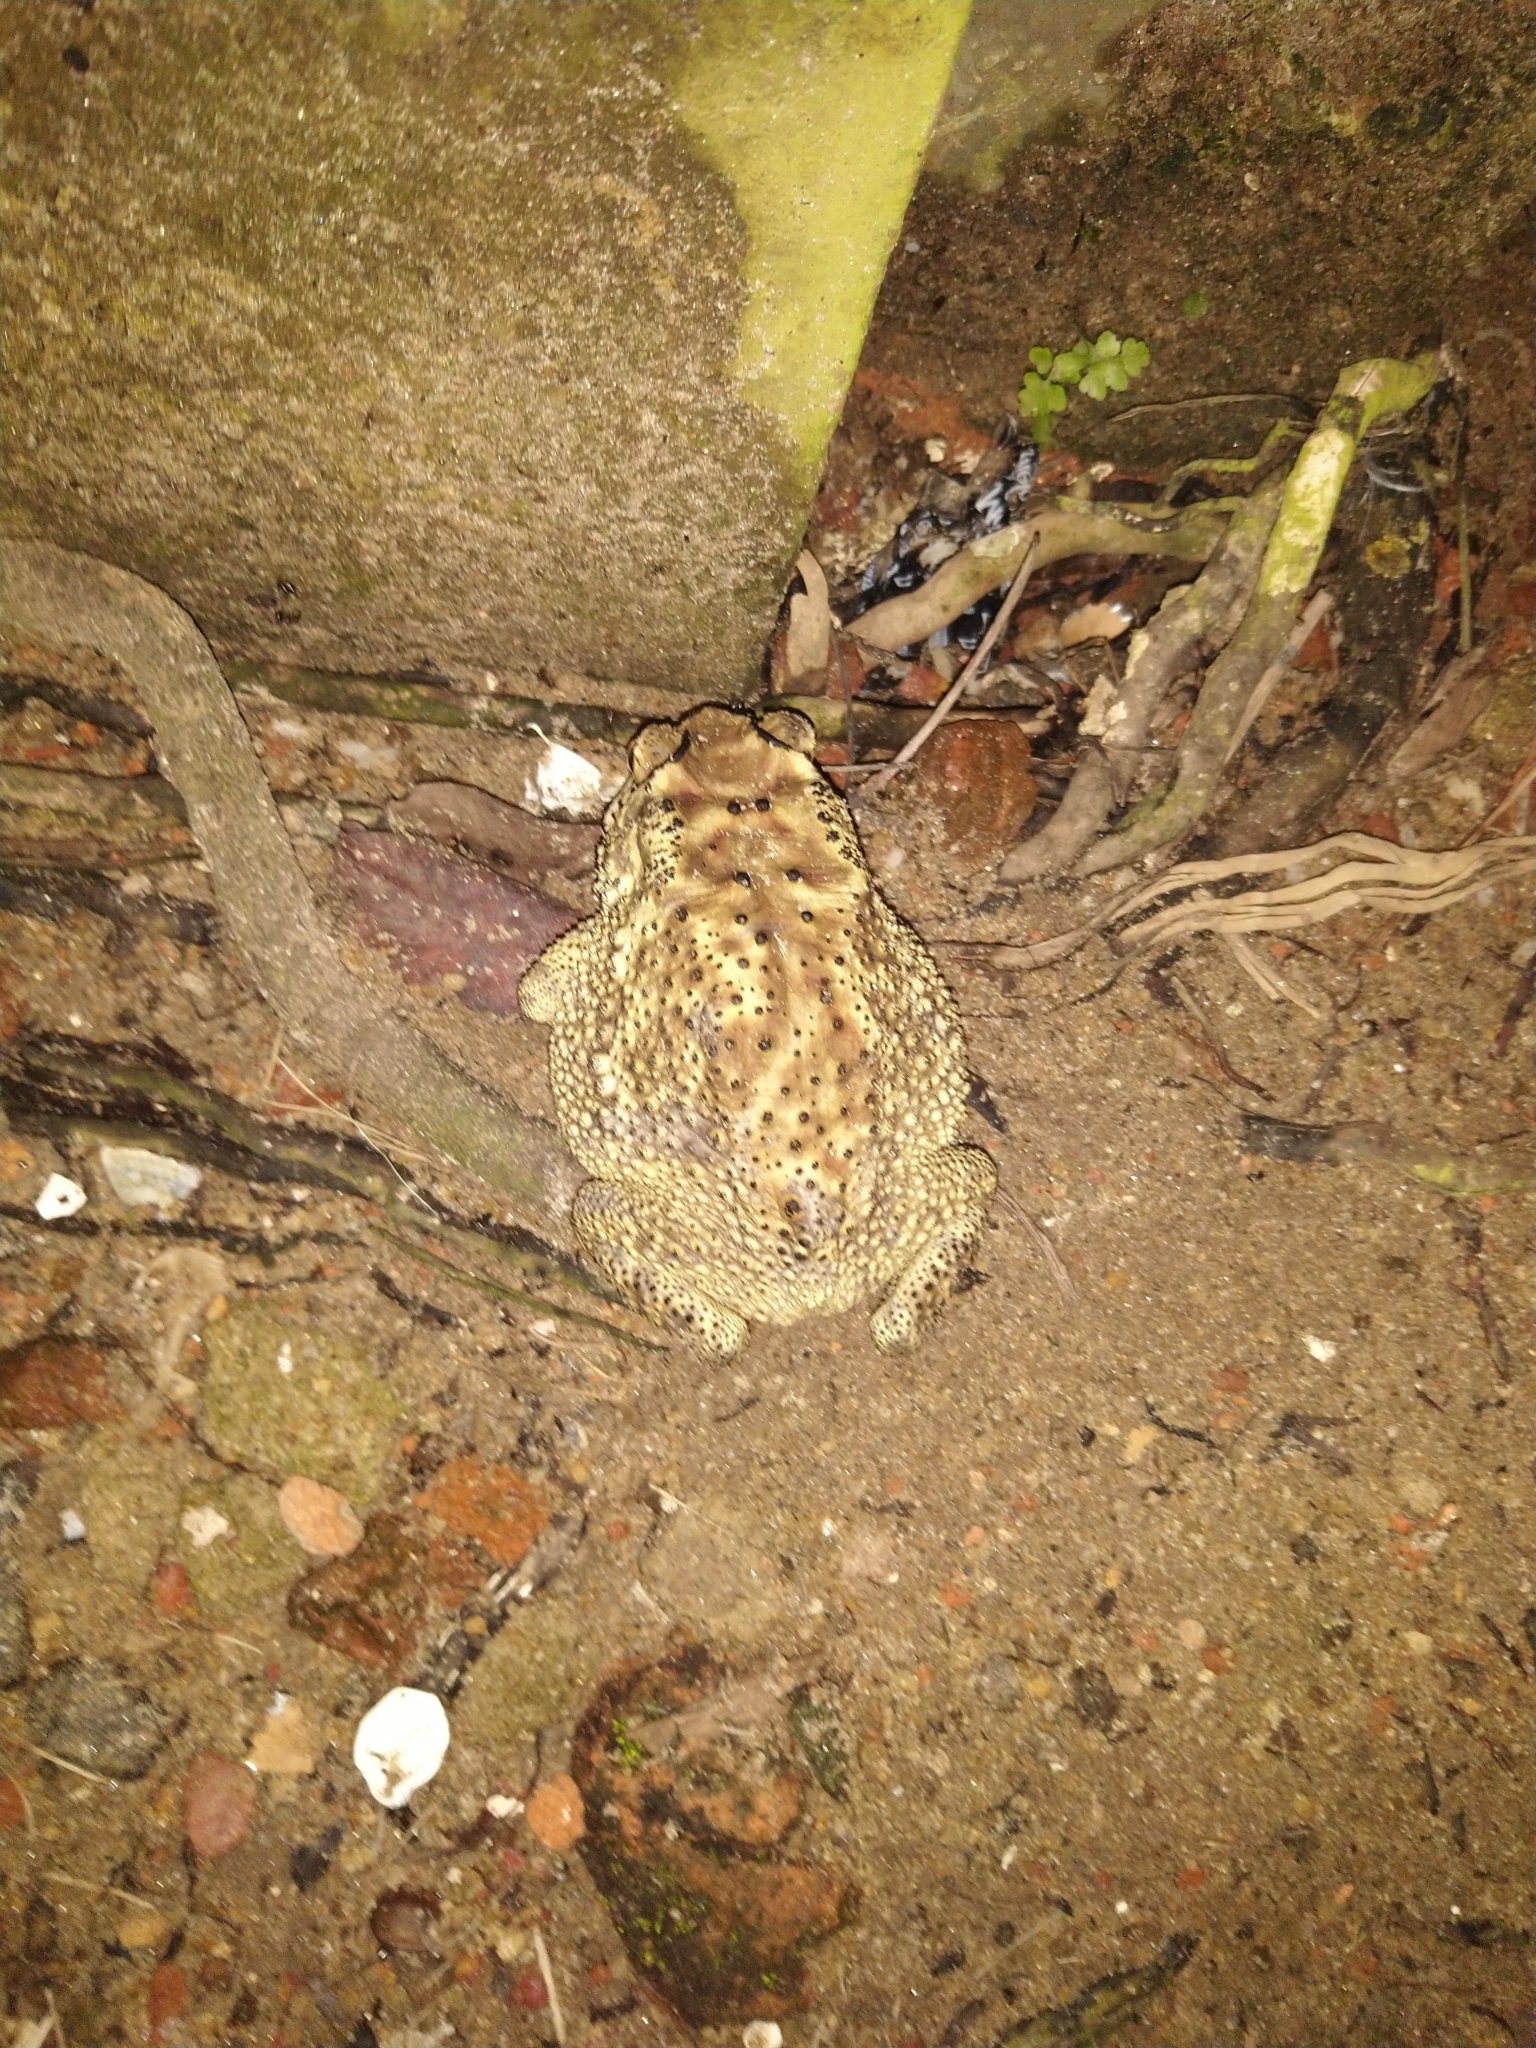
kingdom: Animalia
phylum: Chordata
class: Amphibia
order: Anura
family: Bufonidae
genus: Duttaphrynus
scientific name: Duttaphrynus melanostictus
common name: Common sunda toad
